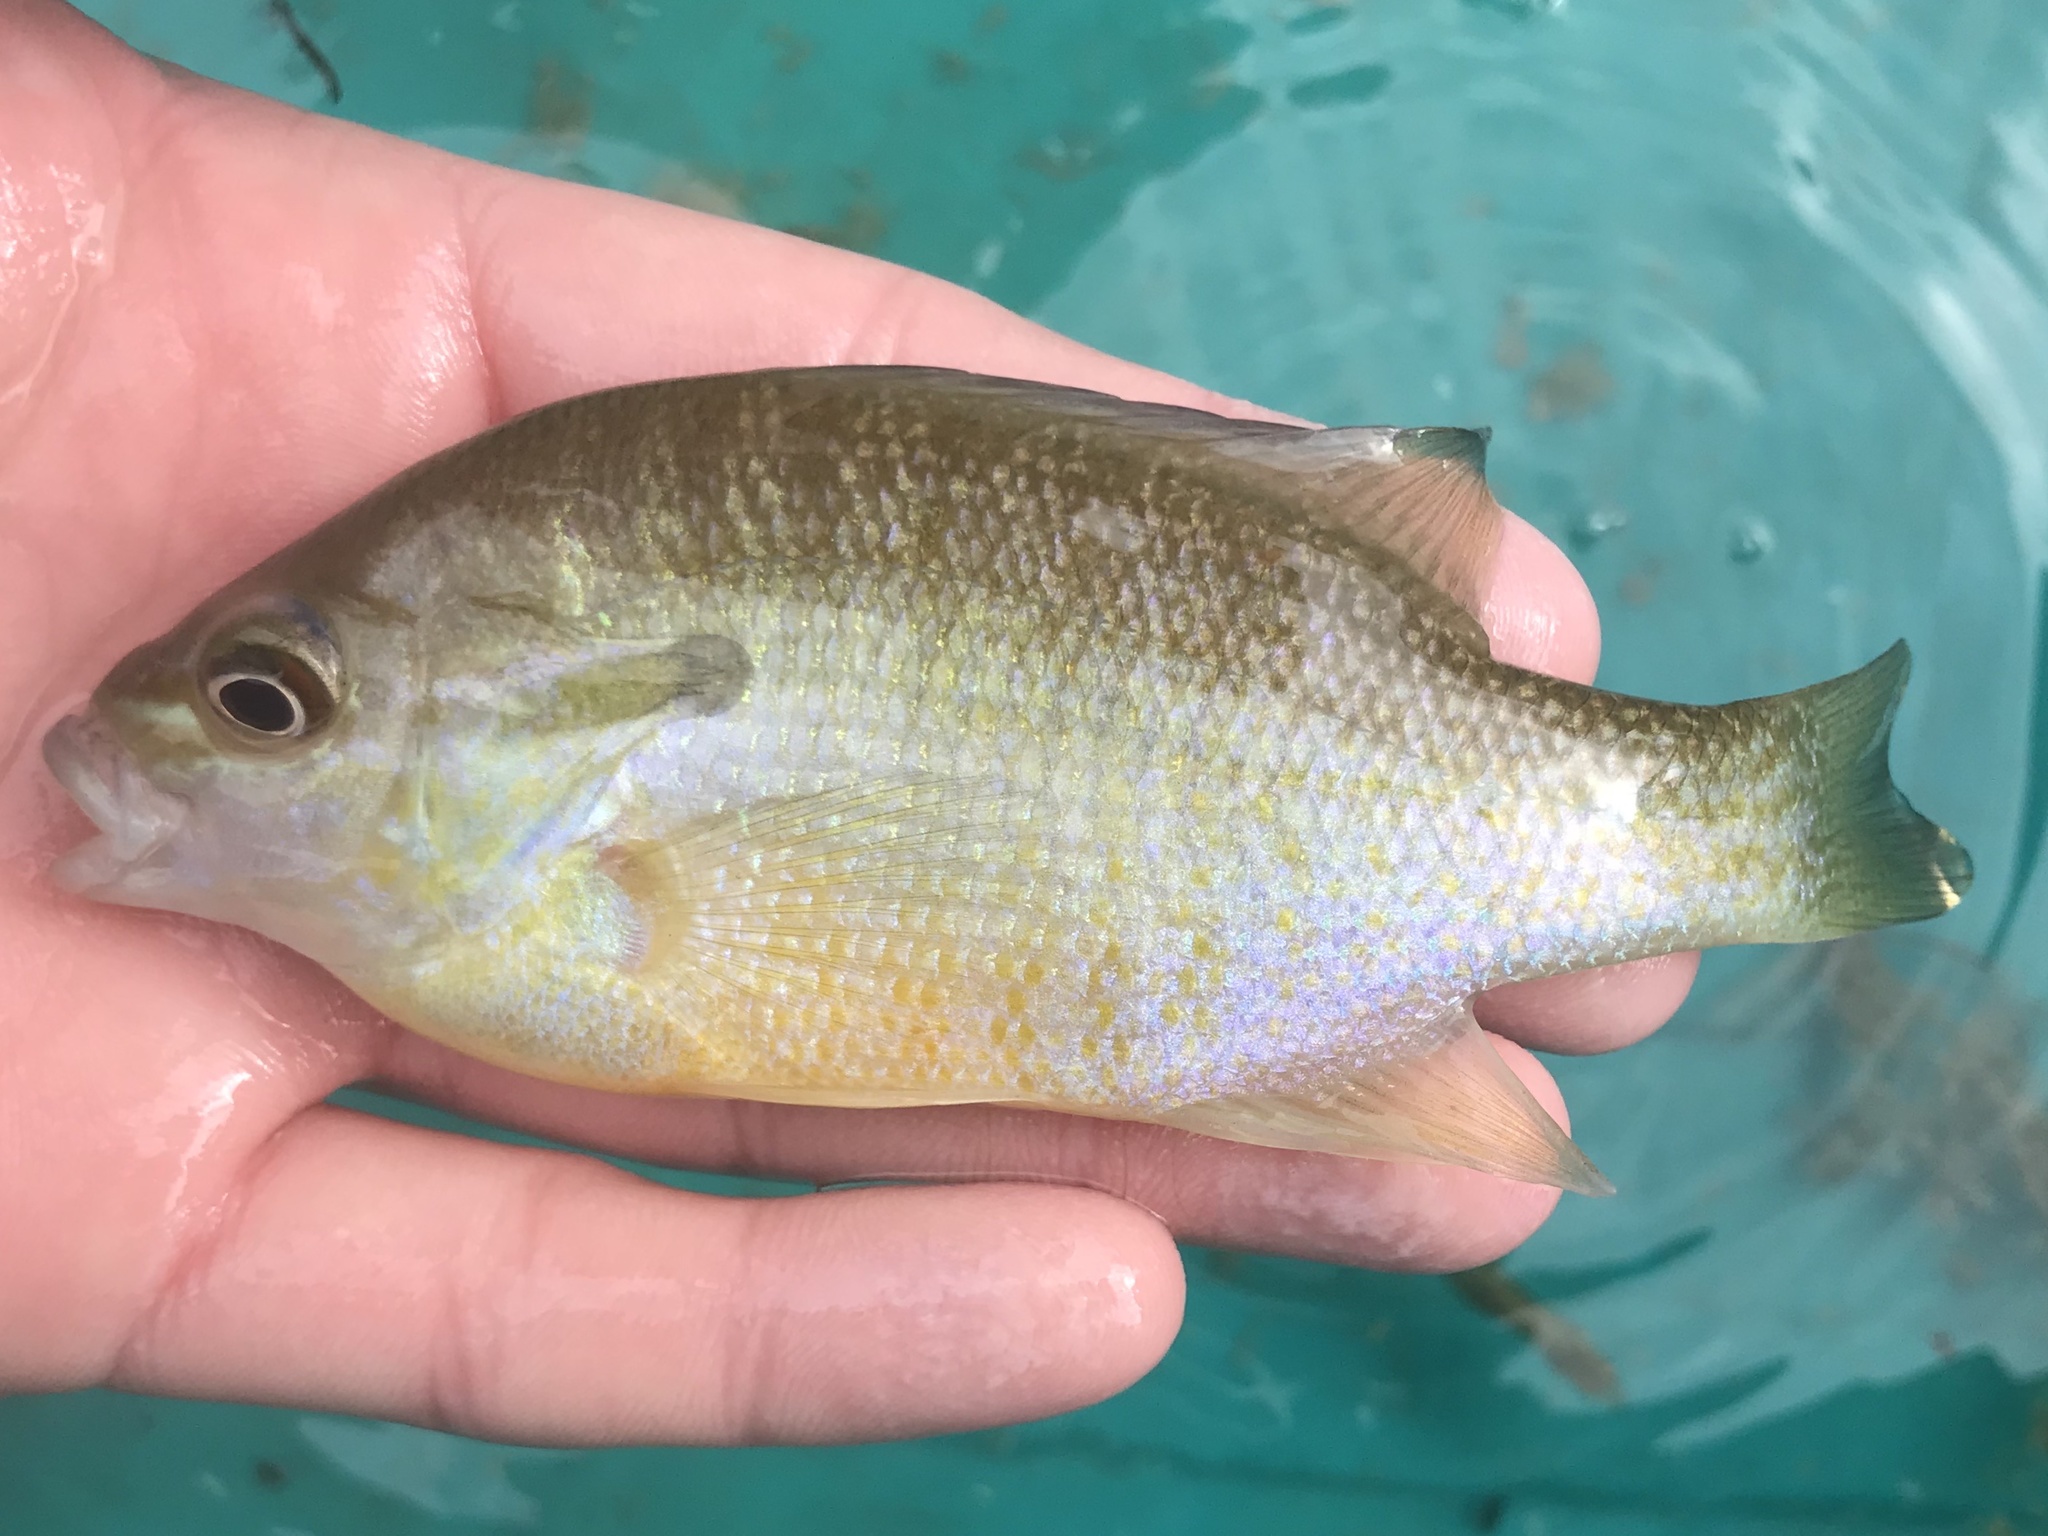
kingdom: Animalia
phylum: Chordata
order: Perciformes
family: Centrarchidae
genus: Lepomis
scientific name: Lepomis auritus
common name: Redbreast sunfish
